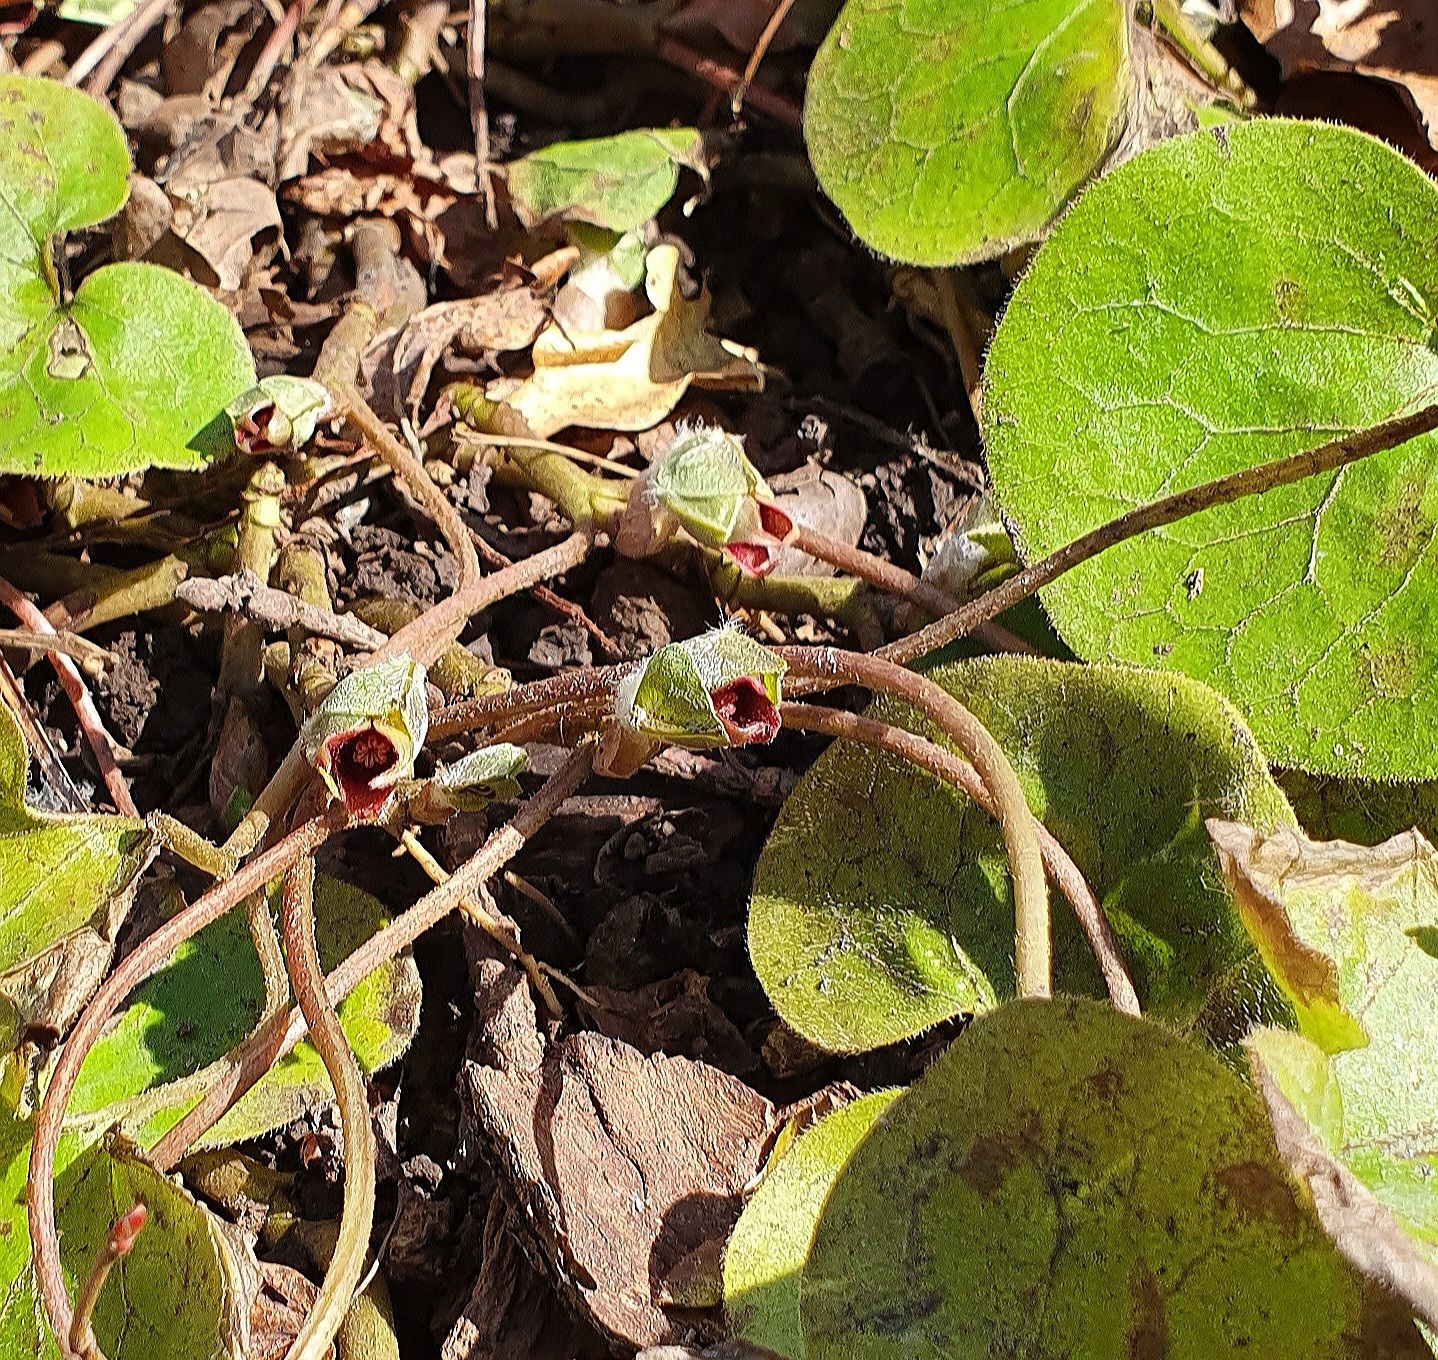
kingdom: Plantae
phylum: Tracheophyta
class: Magnoliopsida
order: Piperales
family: Aristolochiaceae
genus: Asarum
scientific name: Asarum europaeum
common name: Asarabacca
